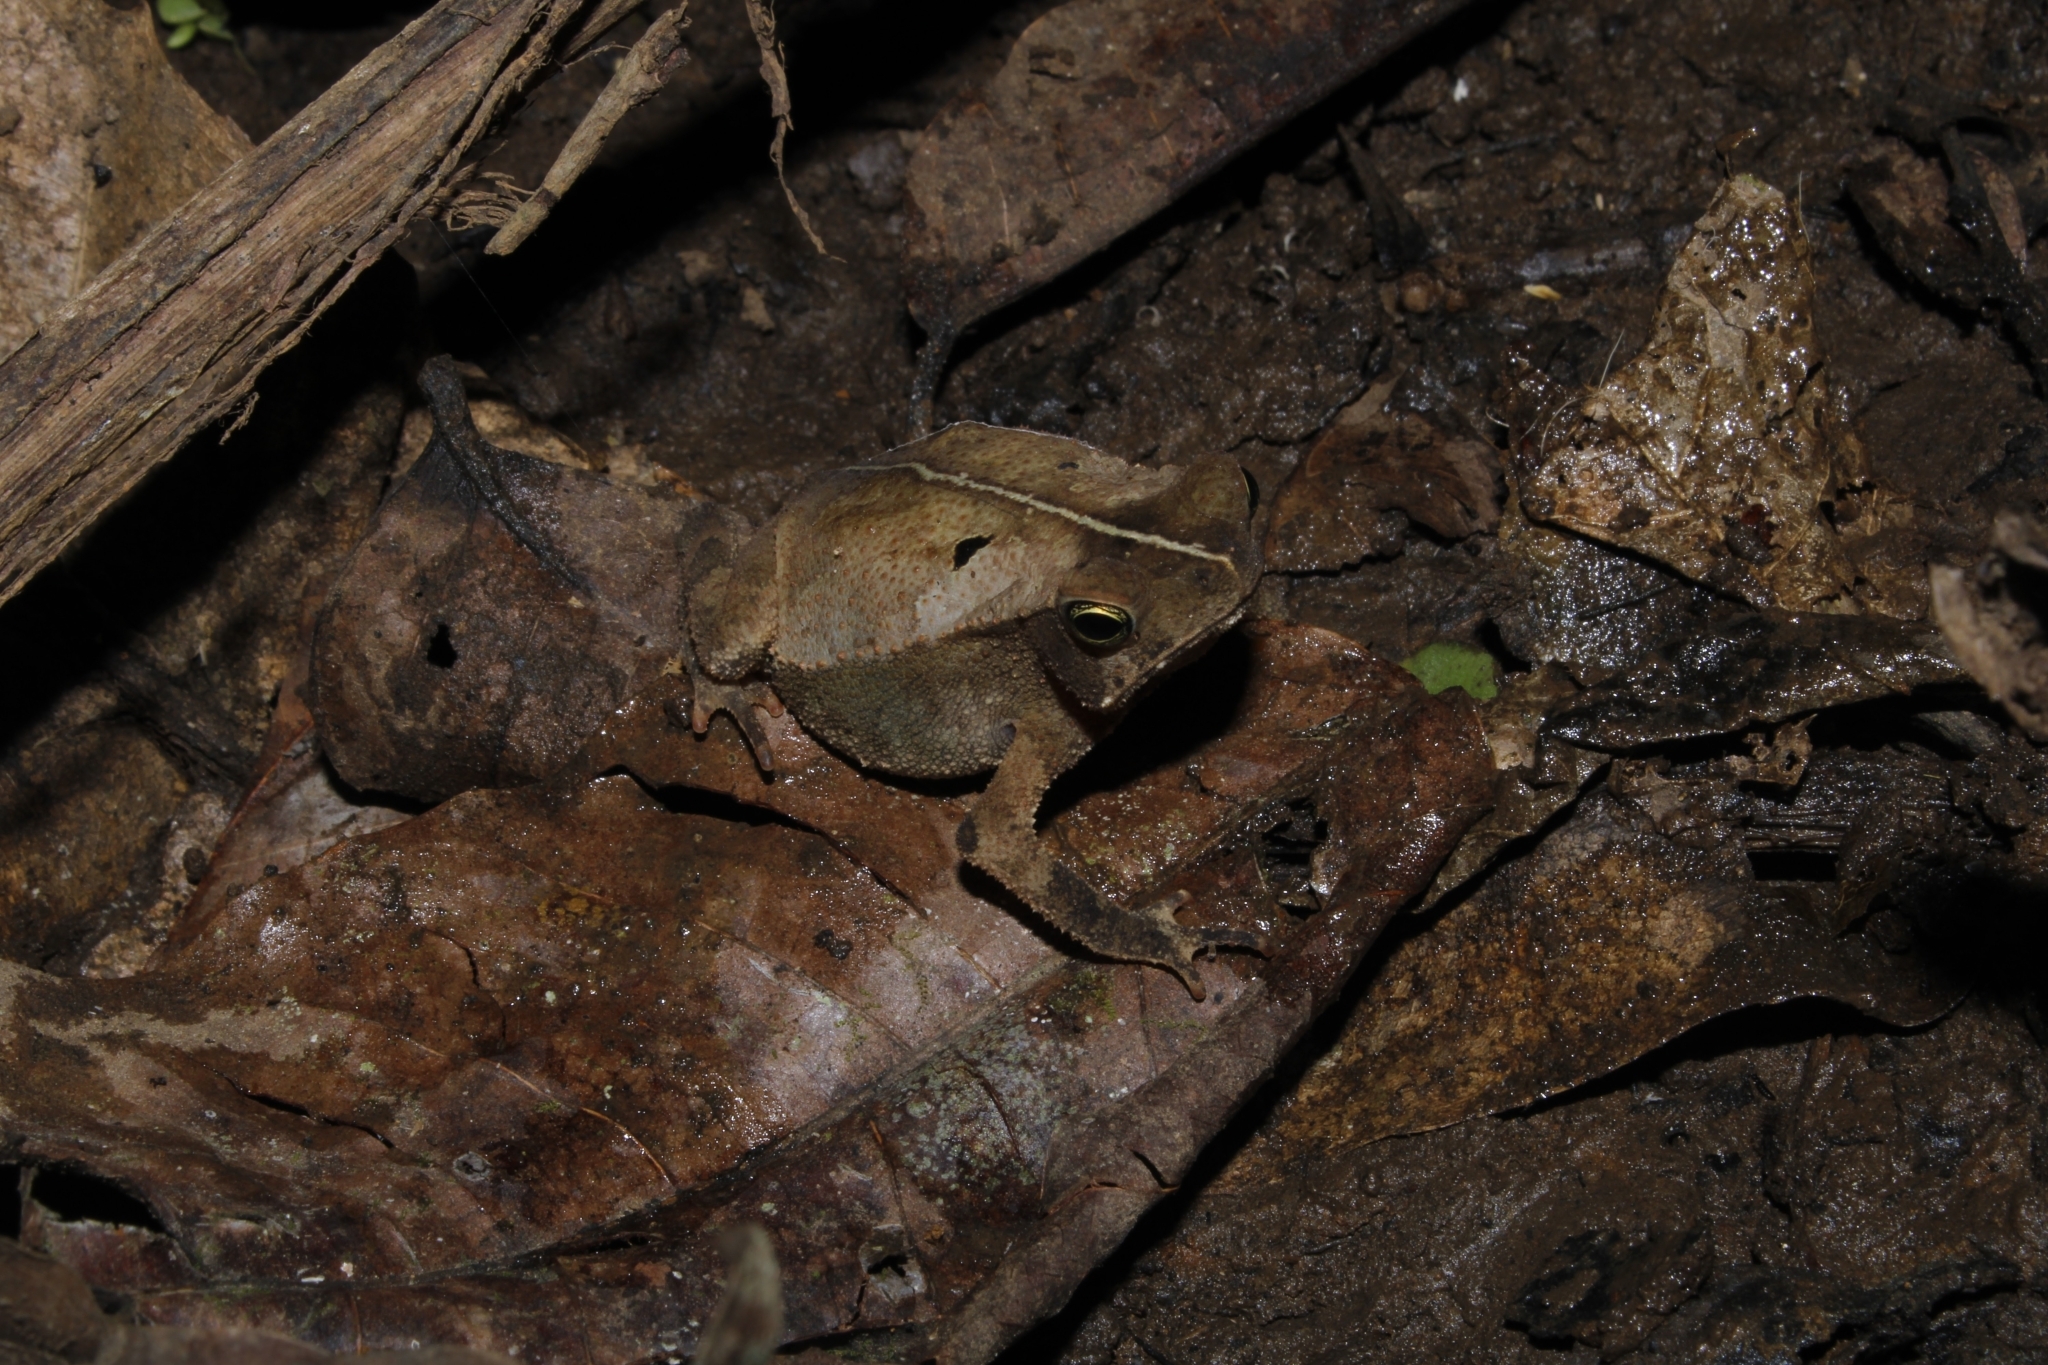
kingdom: Animalia
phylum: Chordata
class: Amphibia
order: Anura
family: Bufonidae
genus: Rhinella
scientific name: Rhinella alata
